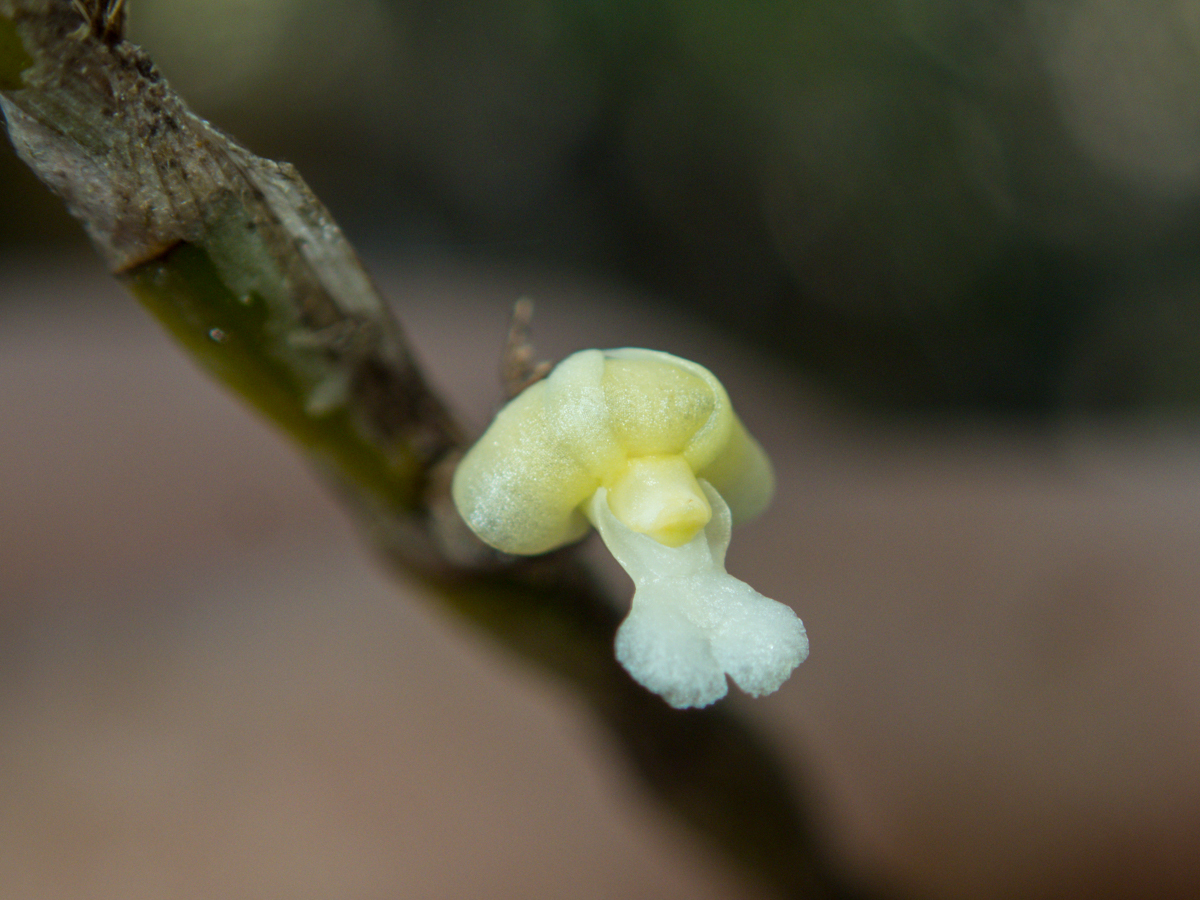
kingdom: Plantae
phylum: Tracheophyta
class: Liliopsida
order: Asparagales
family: Orchidaceae
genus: Dendrobium
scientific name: Dendrobium aloifolium
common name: Aloe-like dendrobium
